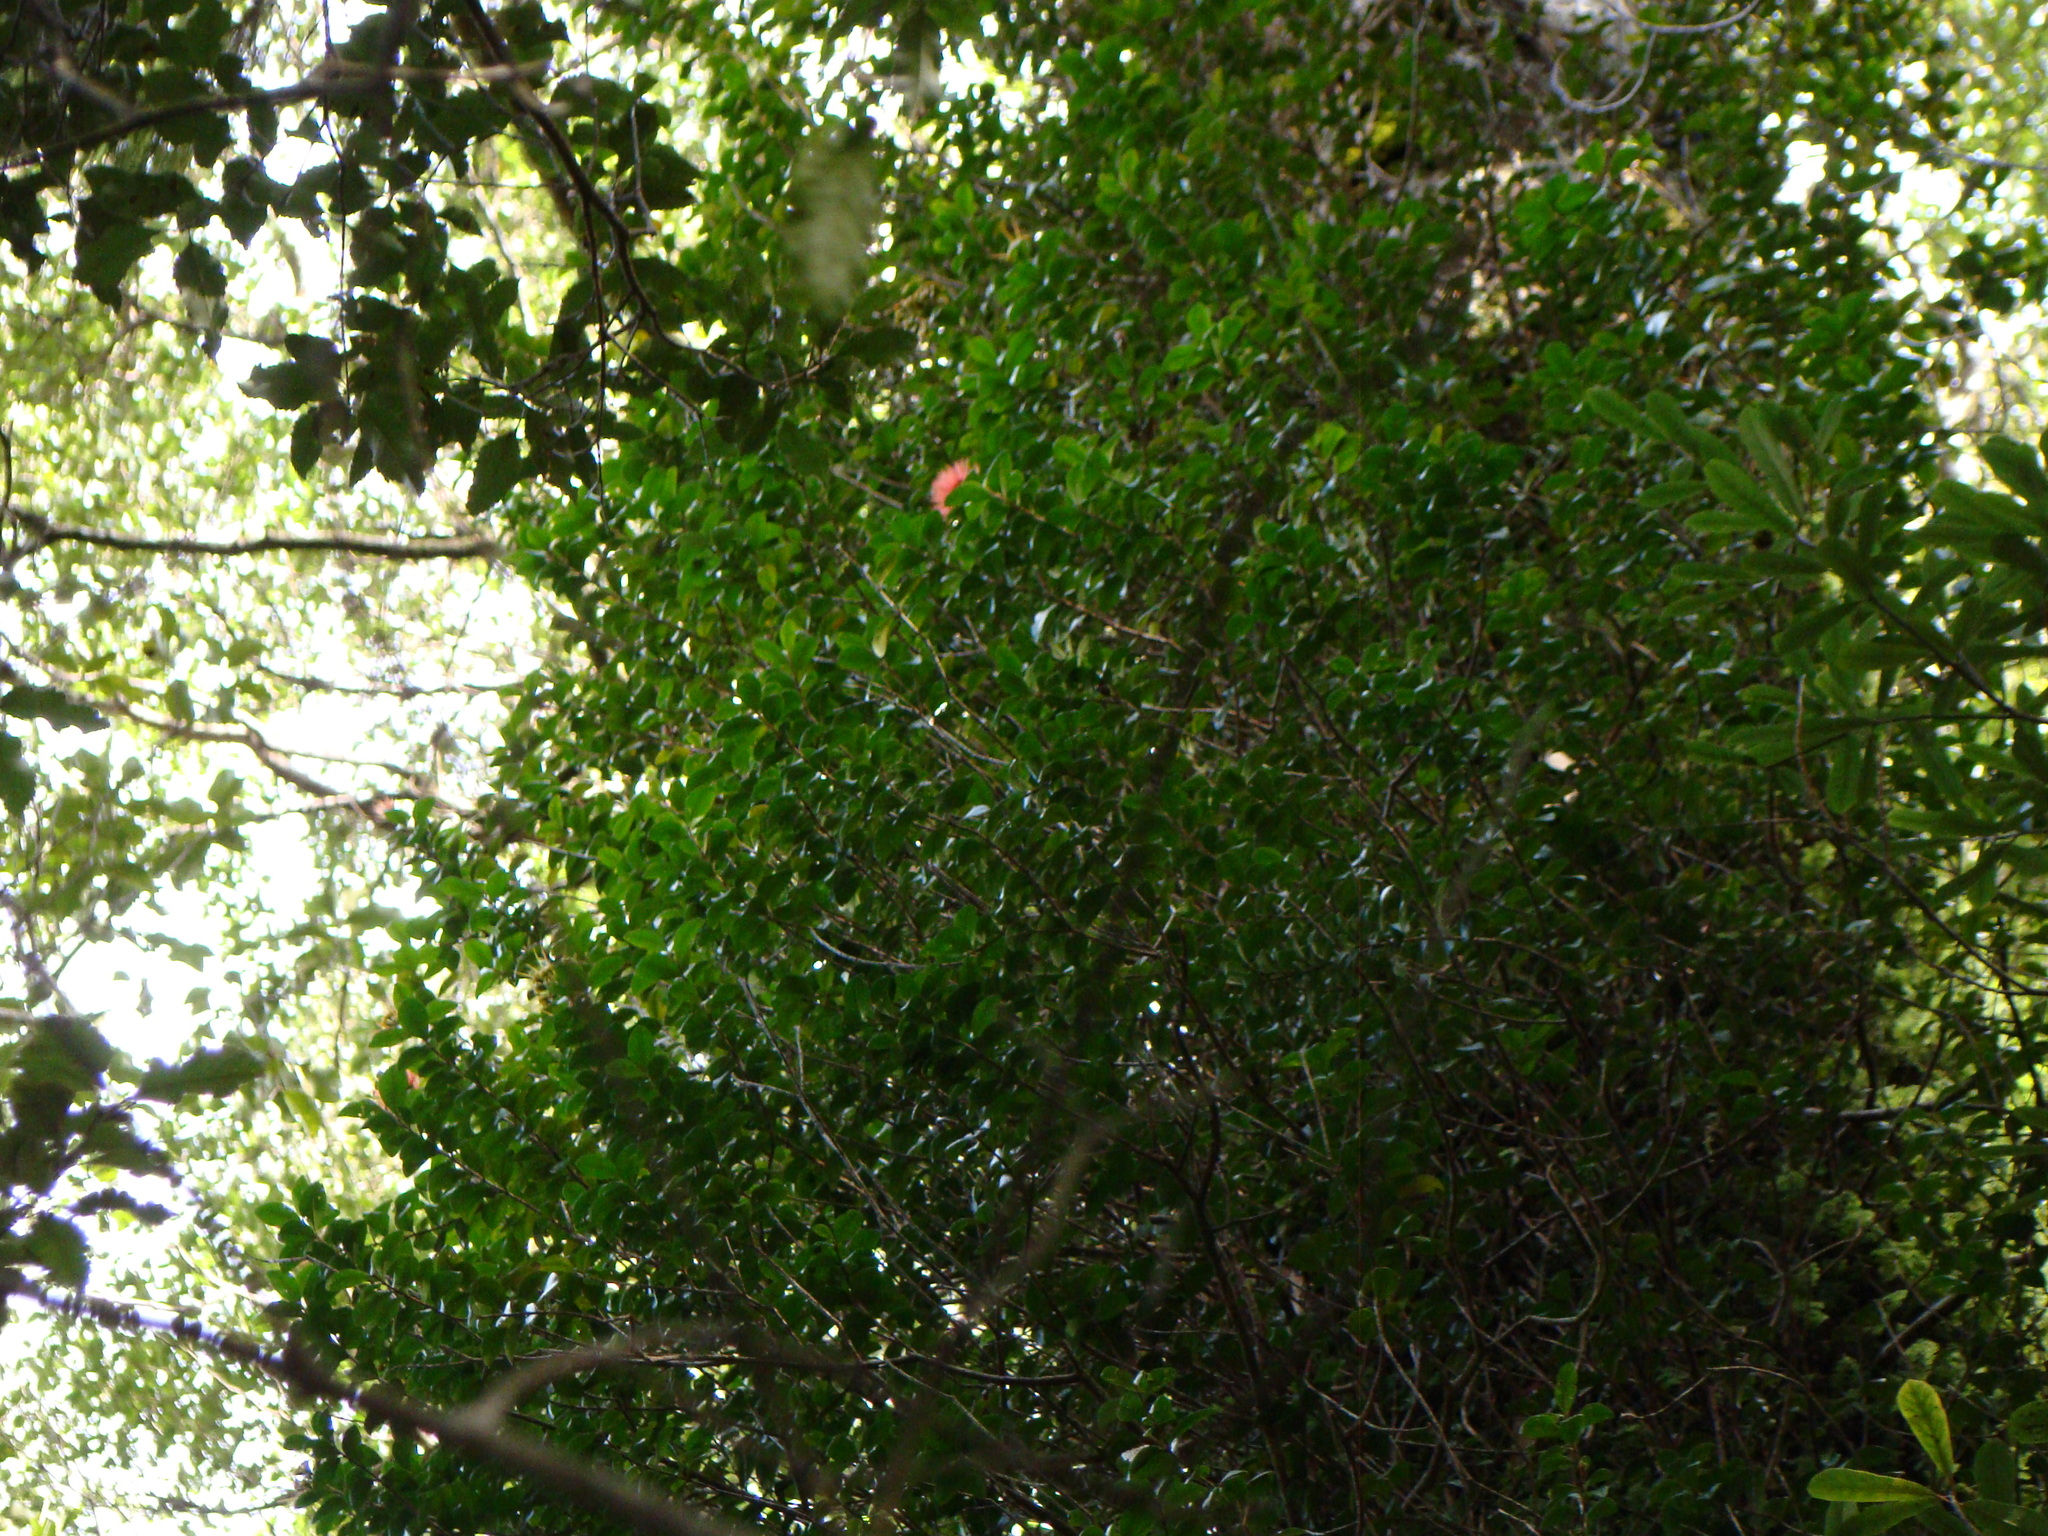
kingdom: Plantae
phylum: Tracheophyta
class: Magnoliopsida
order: Myrtales
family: Myrtaceae
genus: Metrosideros
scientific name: Metrosideros fulgens
